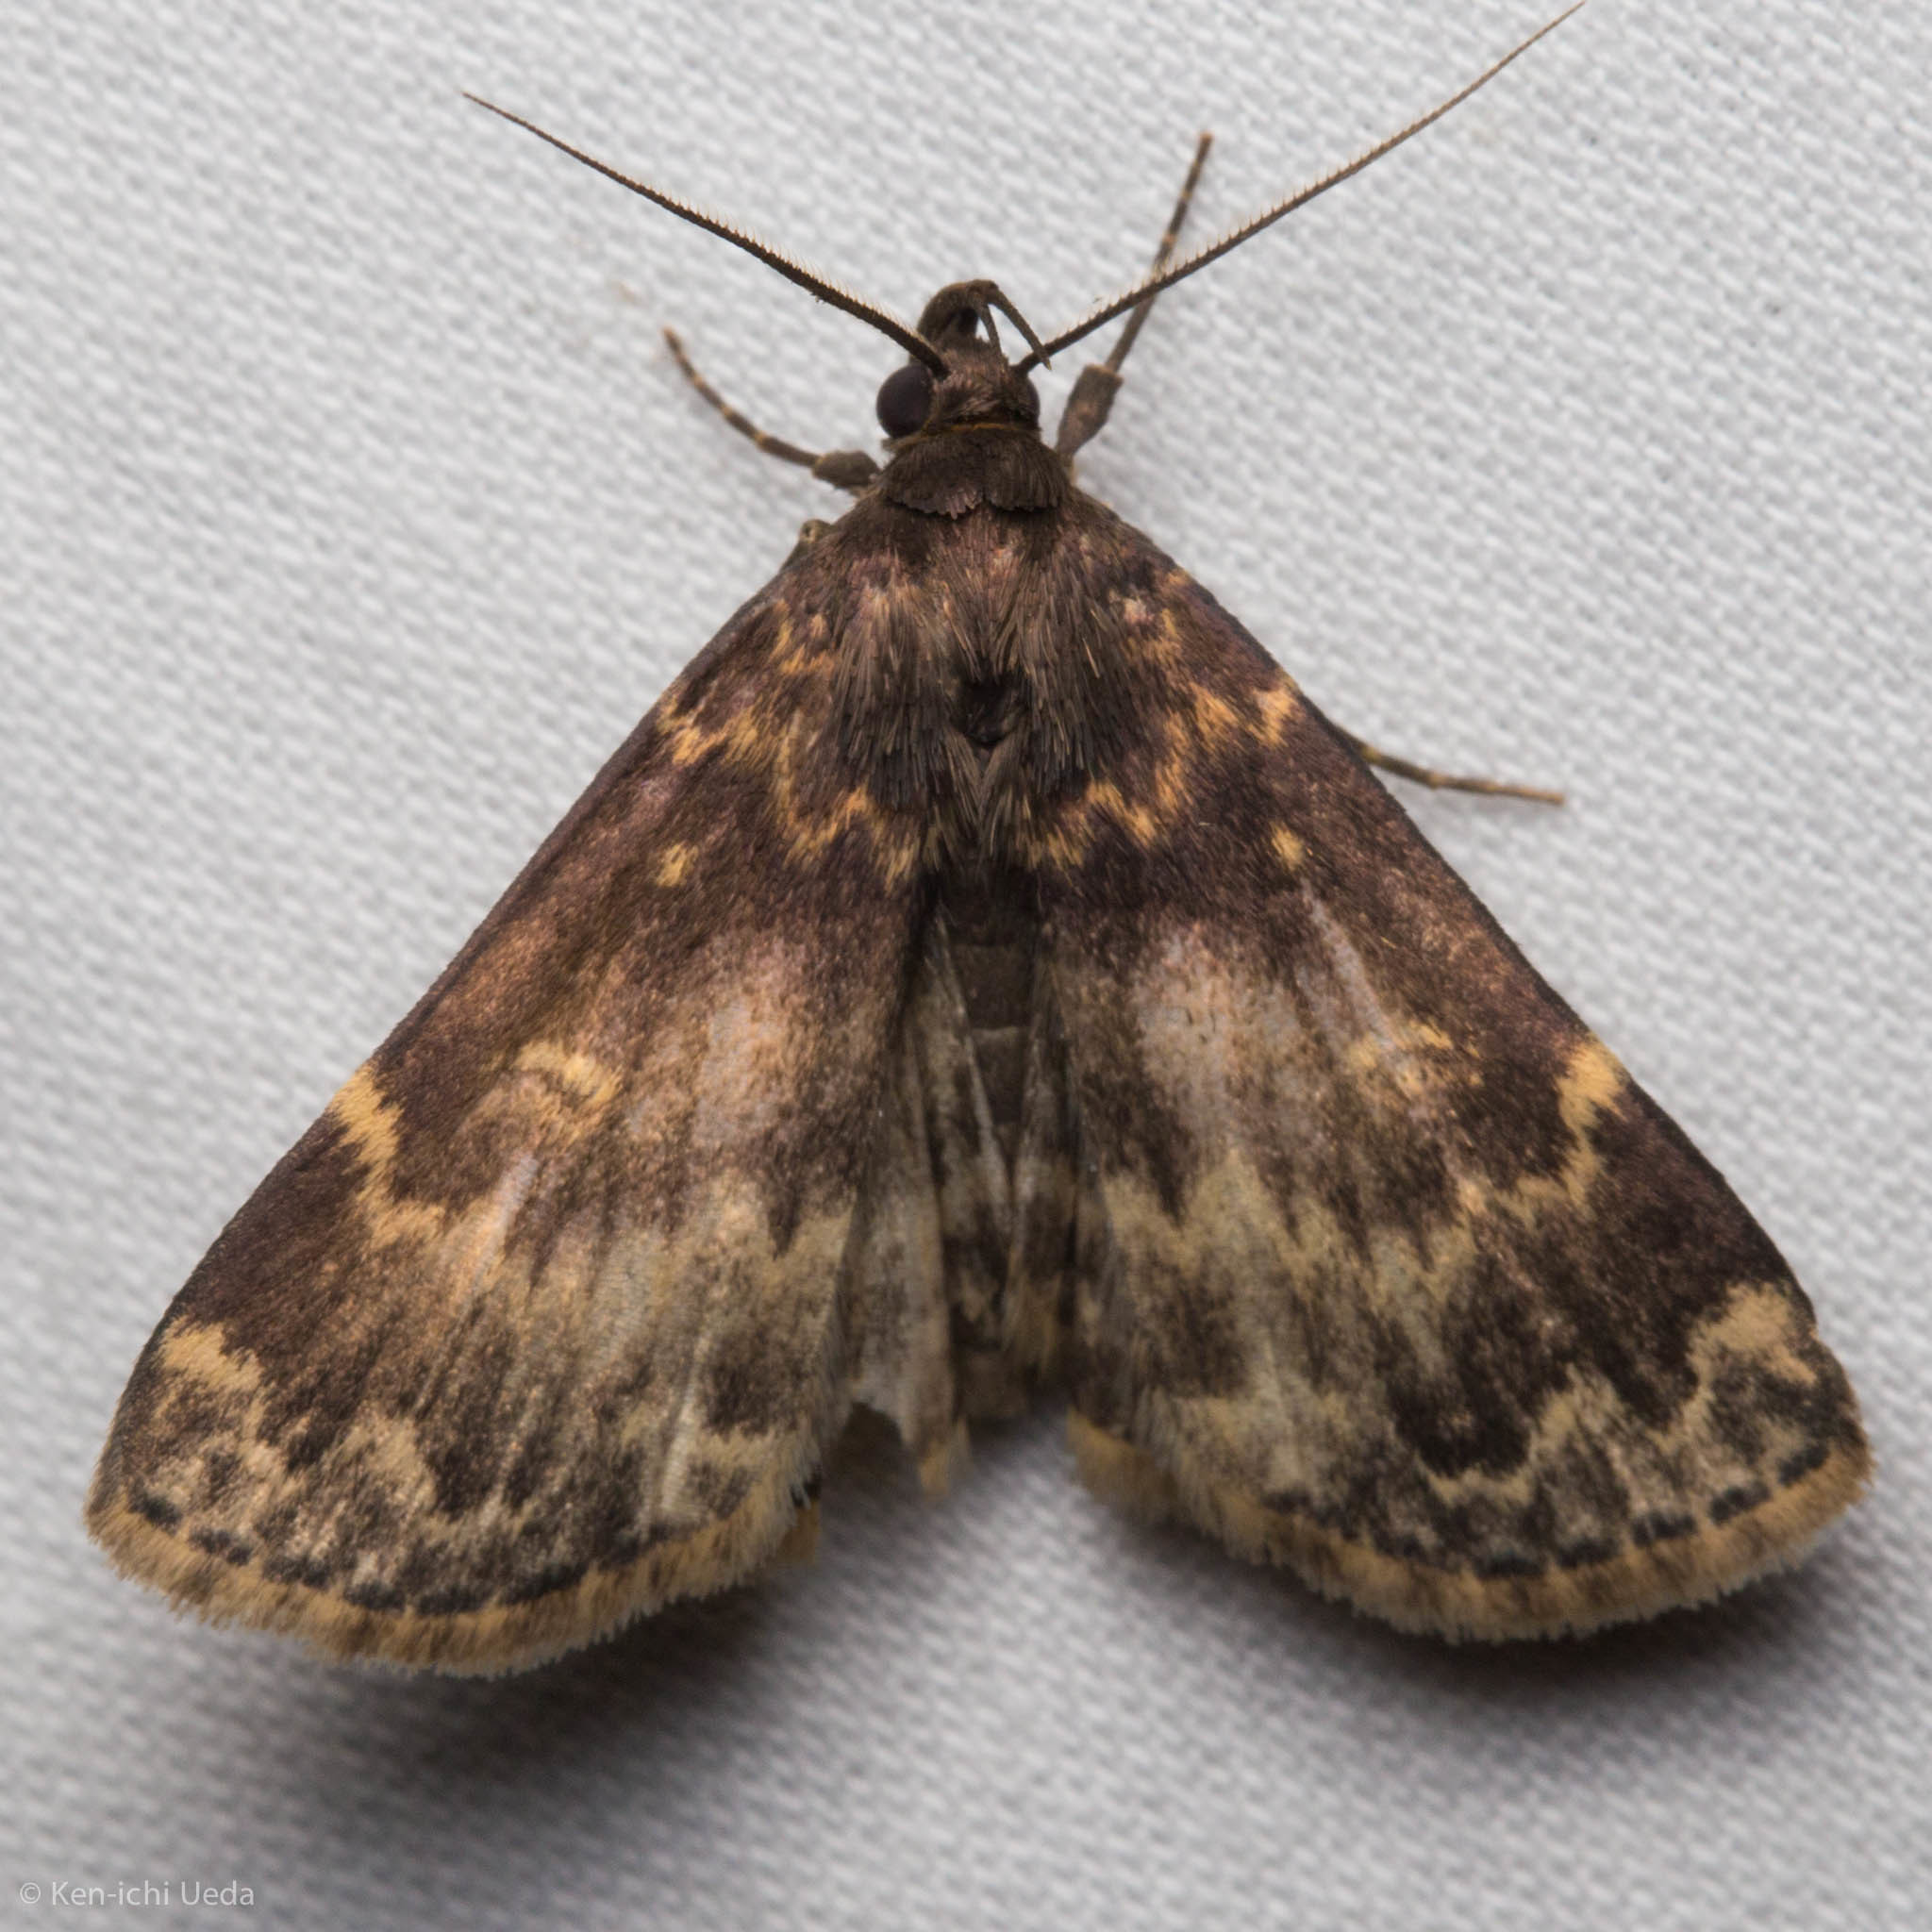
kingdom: Animalia
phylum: Arthropoda
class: Insecta
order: Lepidoptera
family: Erebidae
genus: Idia
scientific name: Idia lubricalis
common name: Twin-striped tabby
